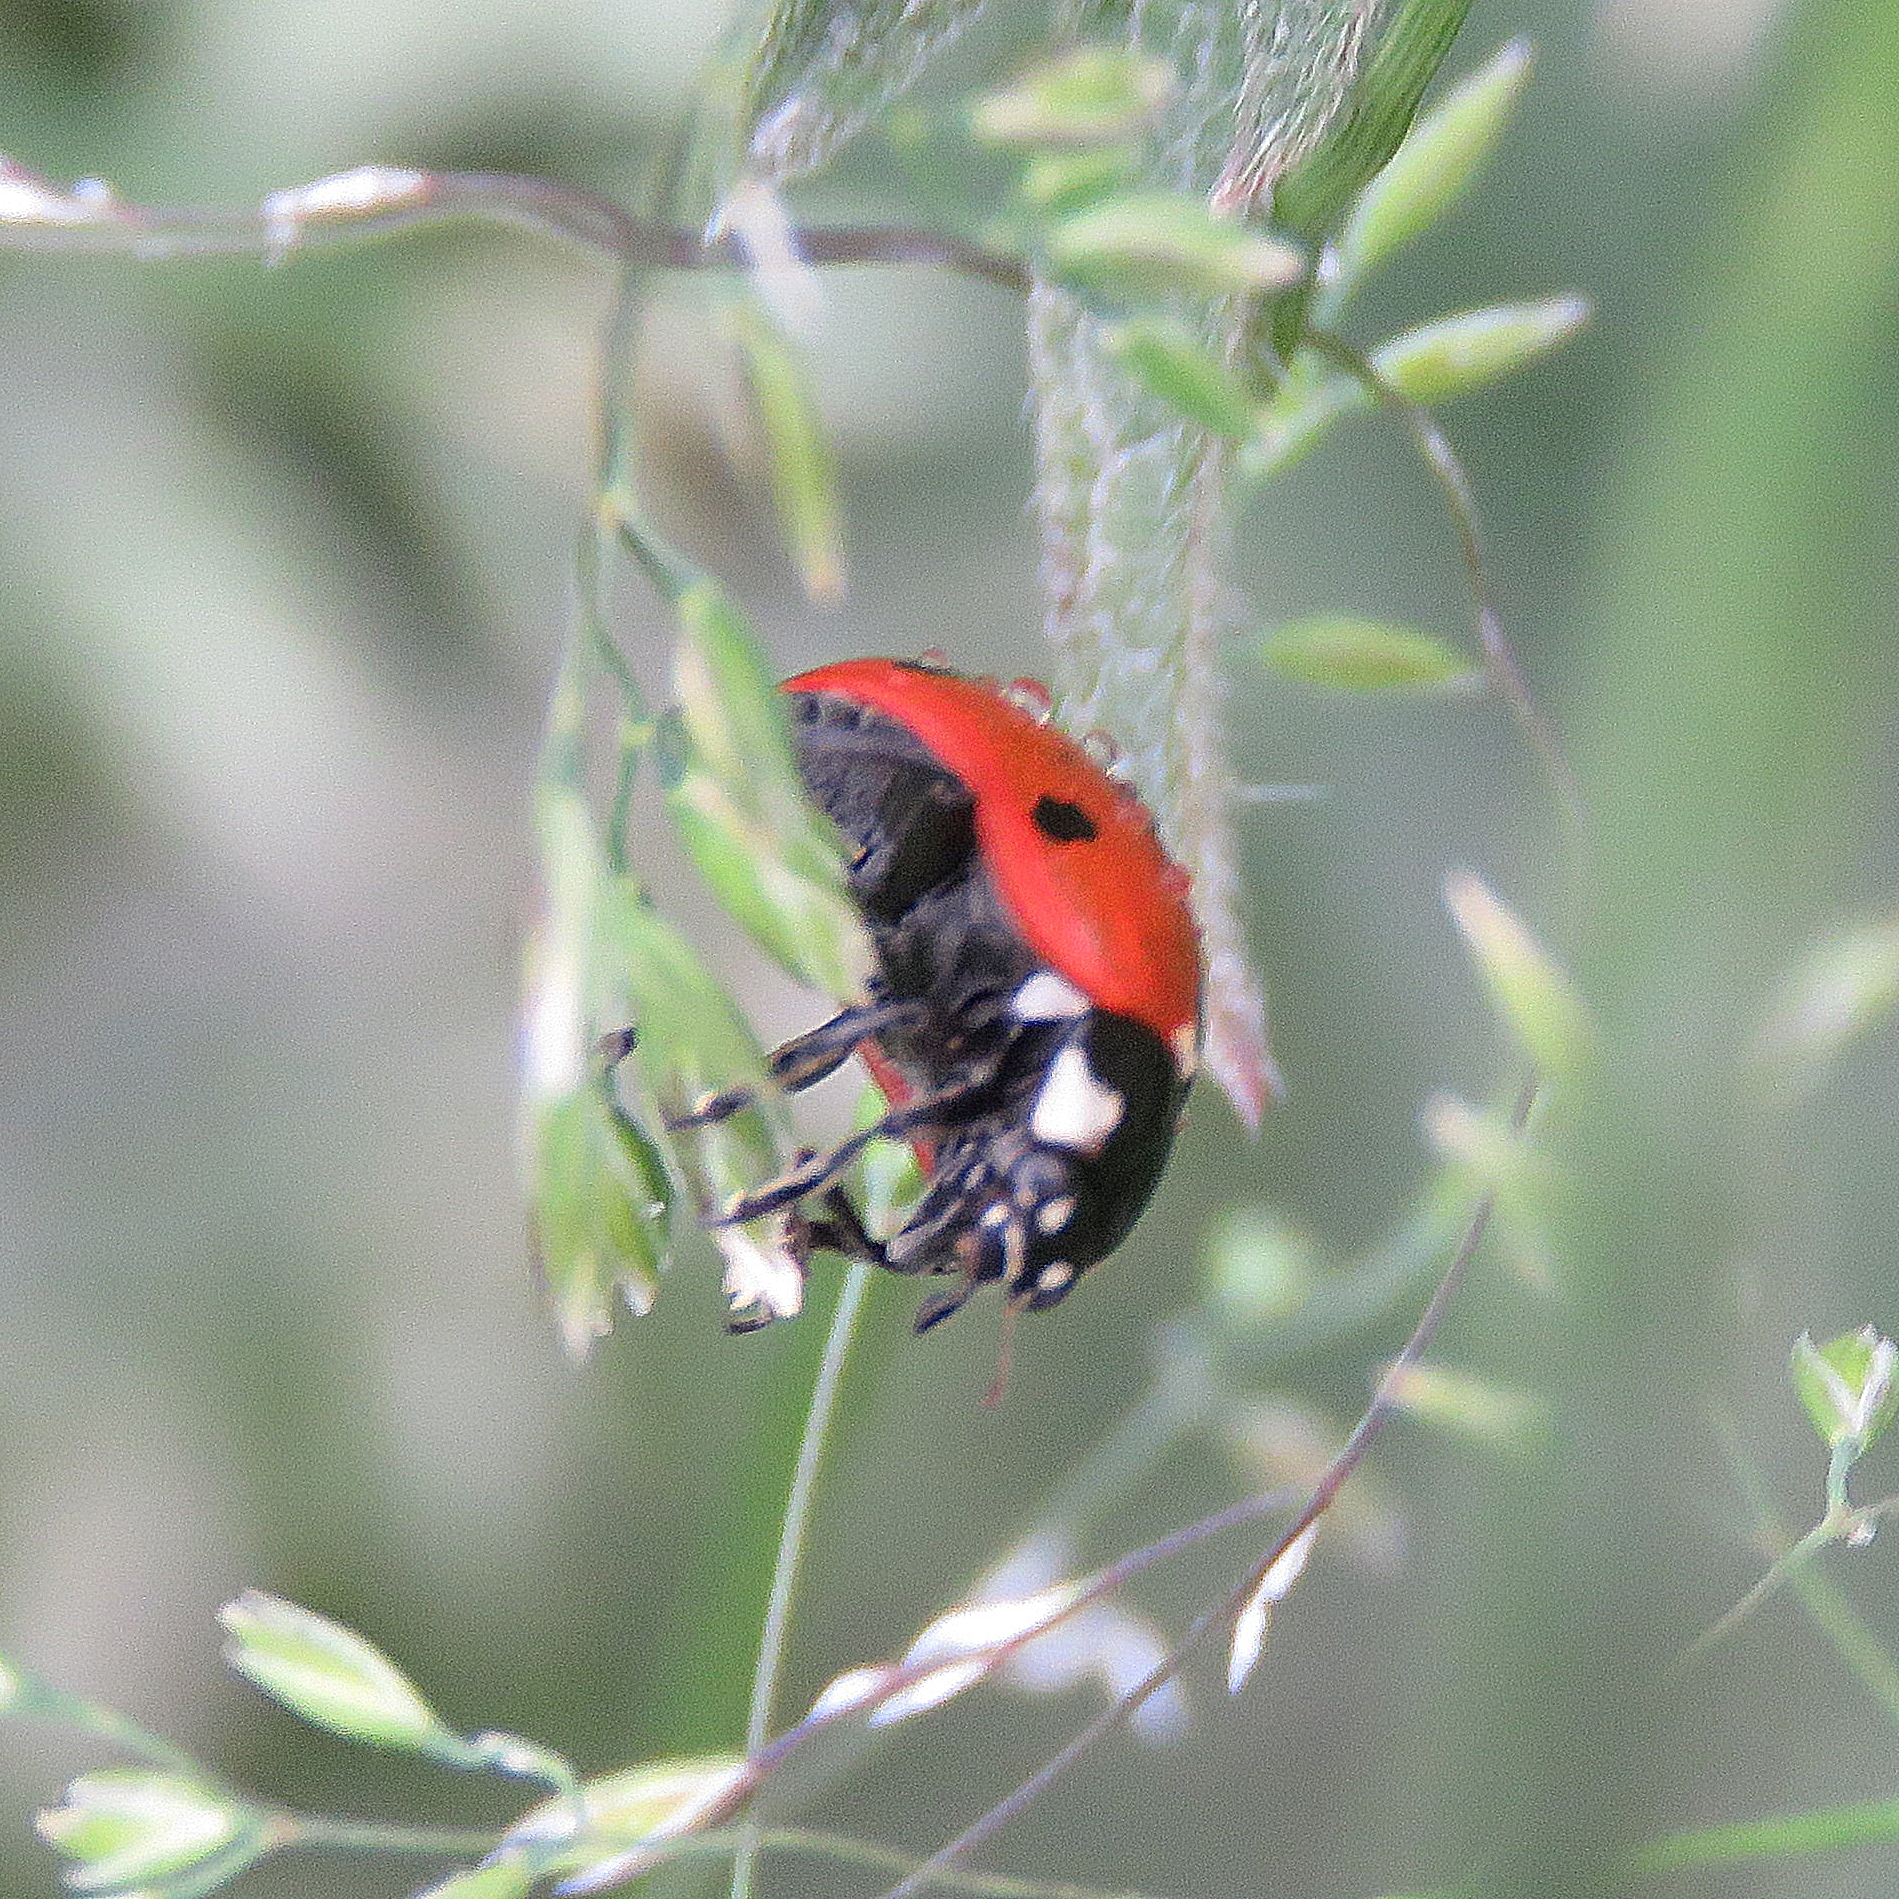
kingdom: Animalia
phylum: Arthropoda
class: Insecta
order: Coleoptera
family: Coccinellidae
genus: Coccinella
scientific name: Coccinella septempunctata
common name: Sevenspotted lady beetle
